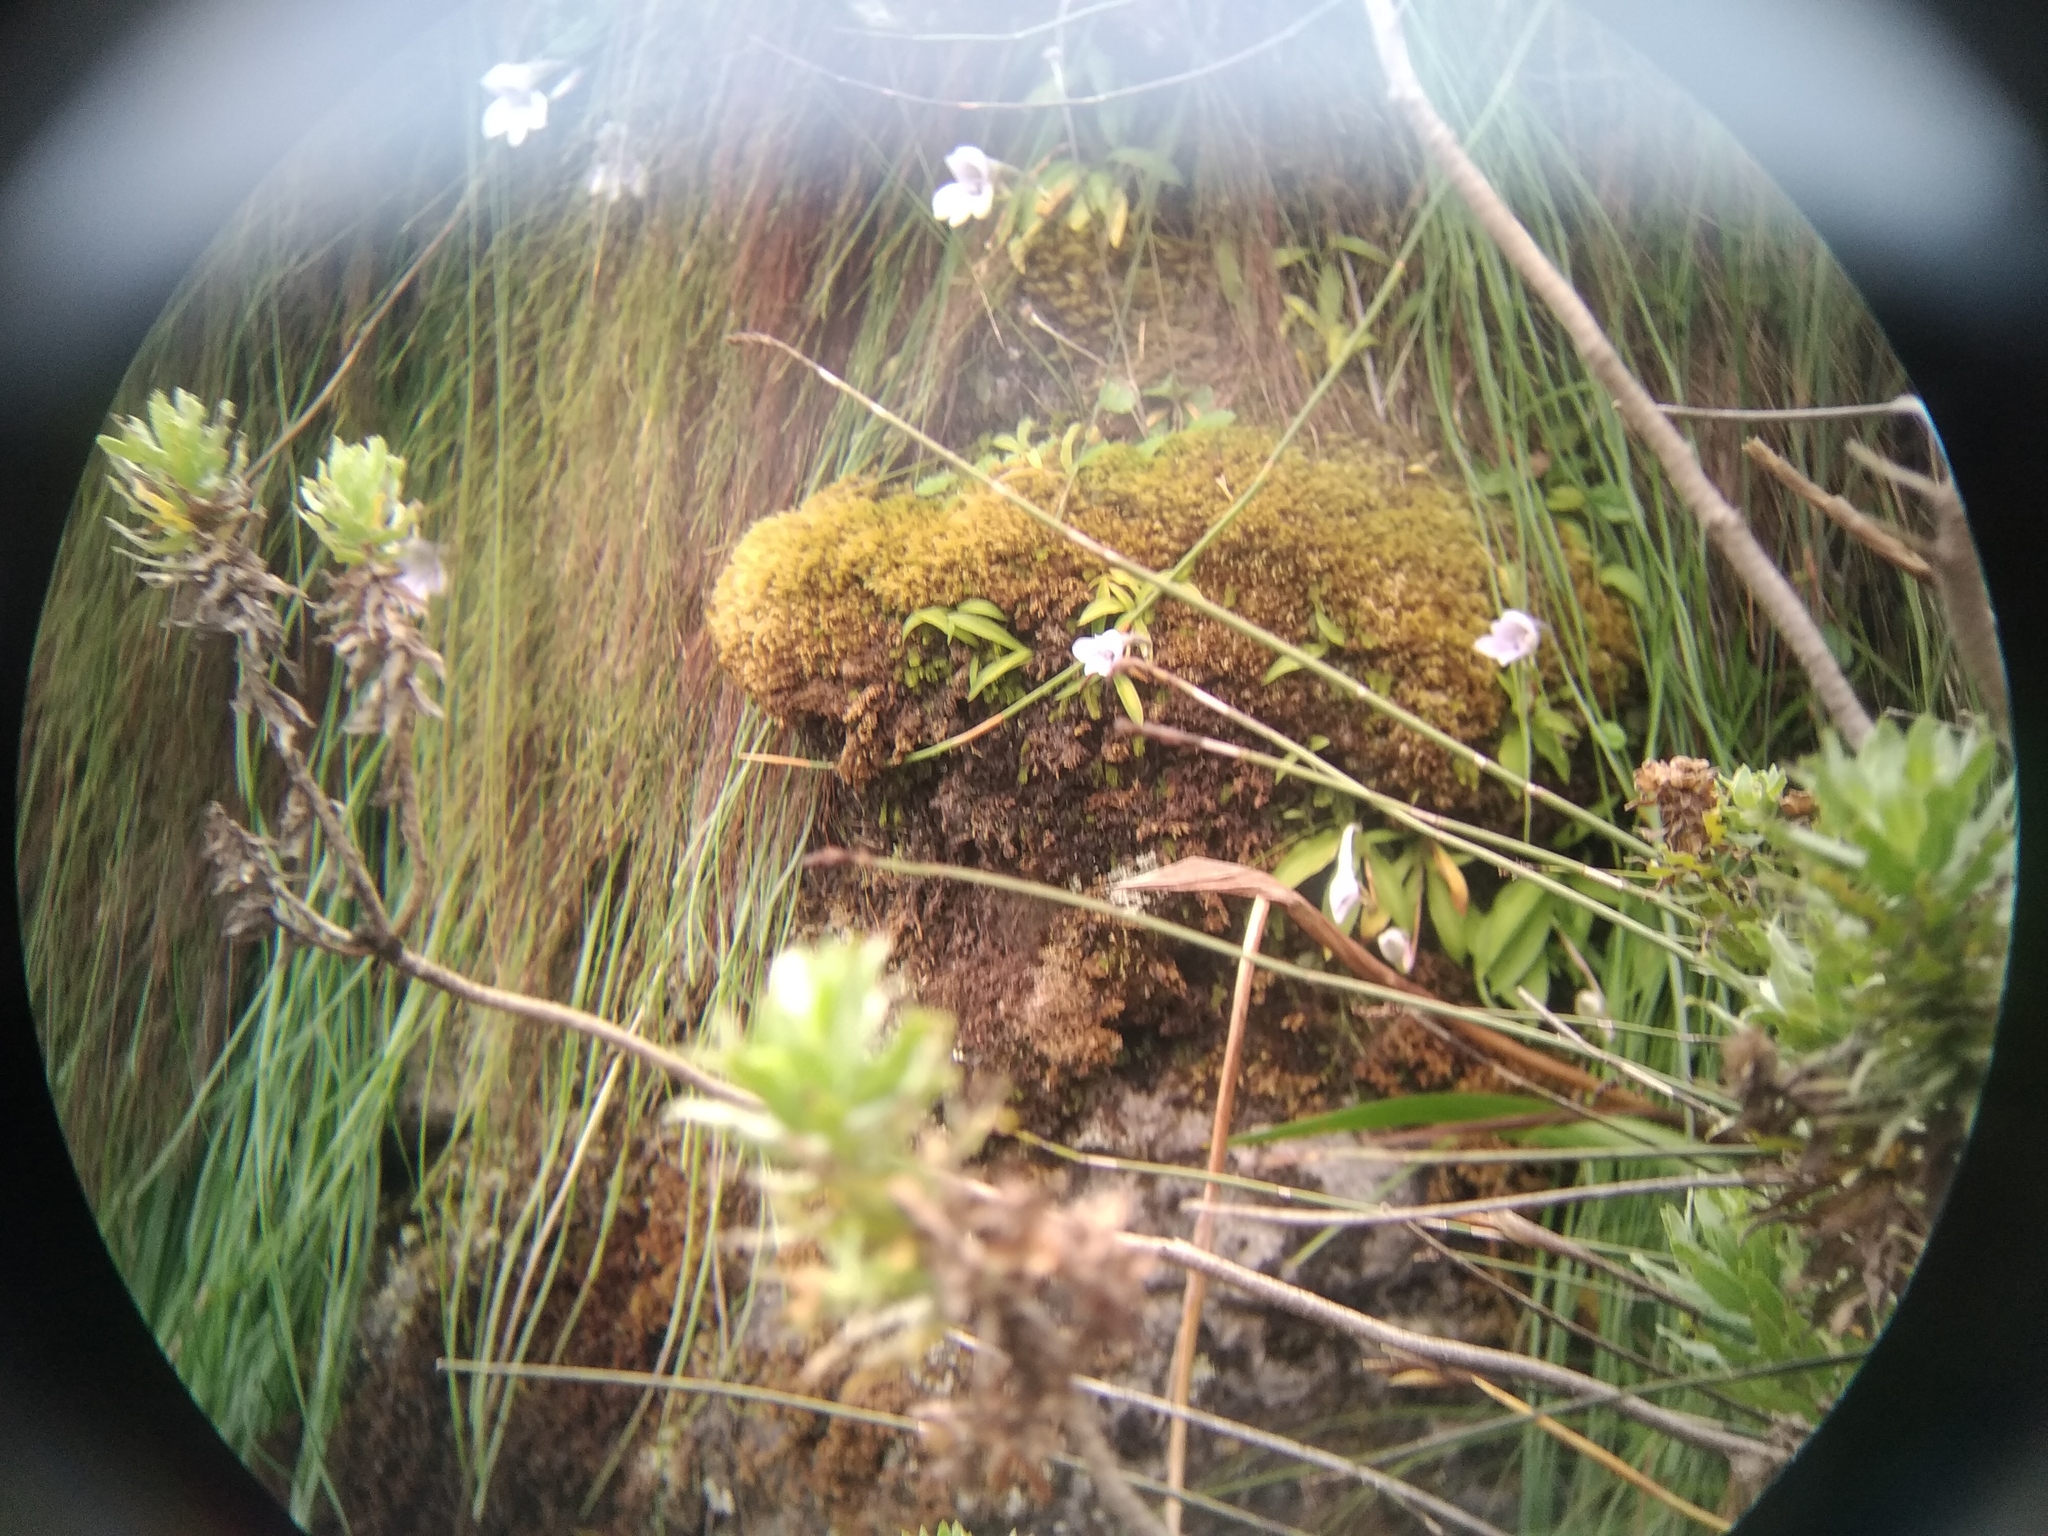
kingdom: Plantae
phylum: Tracheophyta
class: Liliopsida
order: Asparagales
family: Orchidaceae
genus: Disa
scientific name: Disa longicornu
